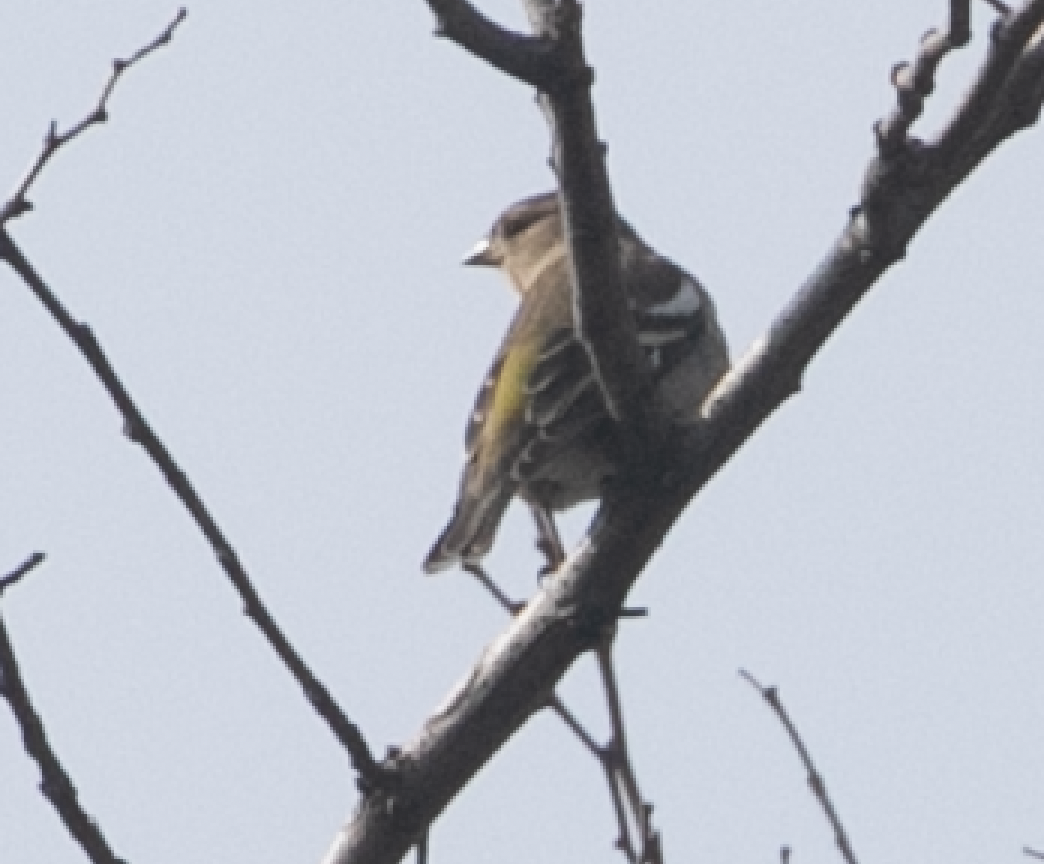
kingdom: Animalia
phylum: Chordata
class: Aves
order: Passeriformes
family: Fringillidae
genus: Fringilla
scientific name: Fringilla coelebs
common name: Common chaffinch
